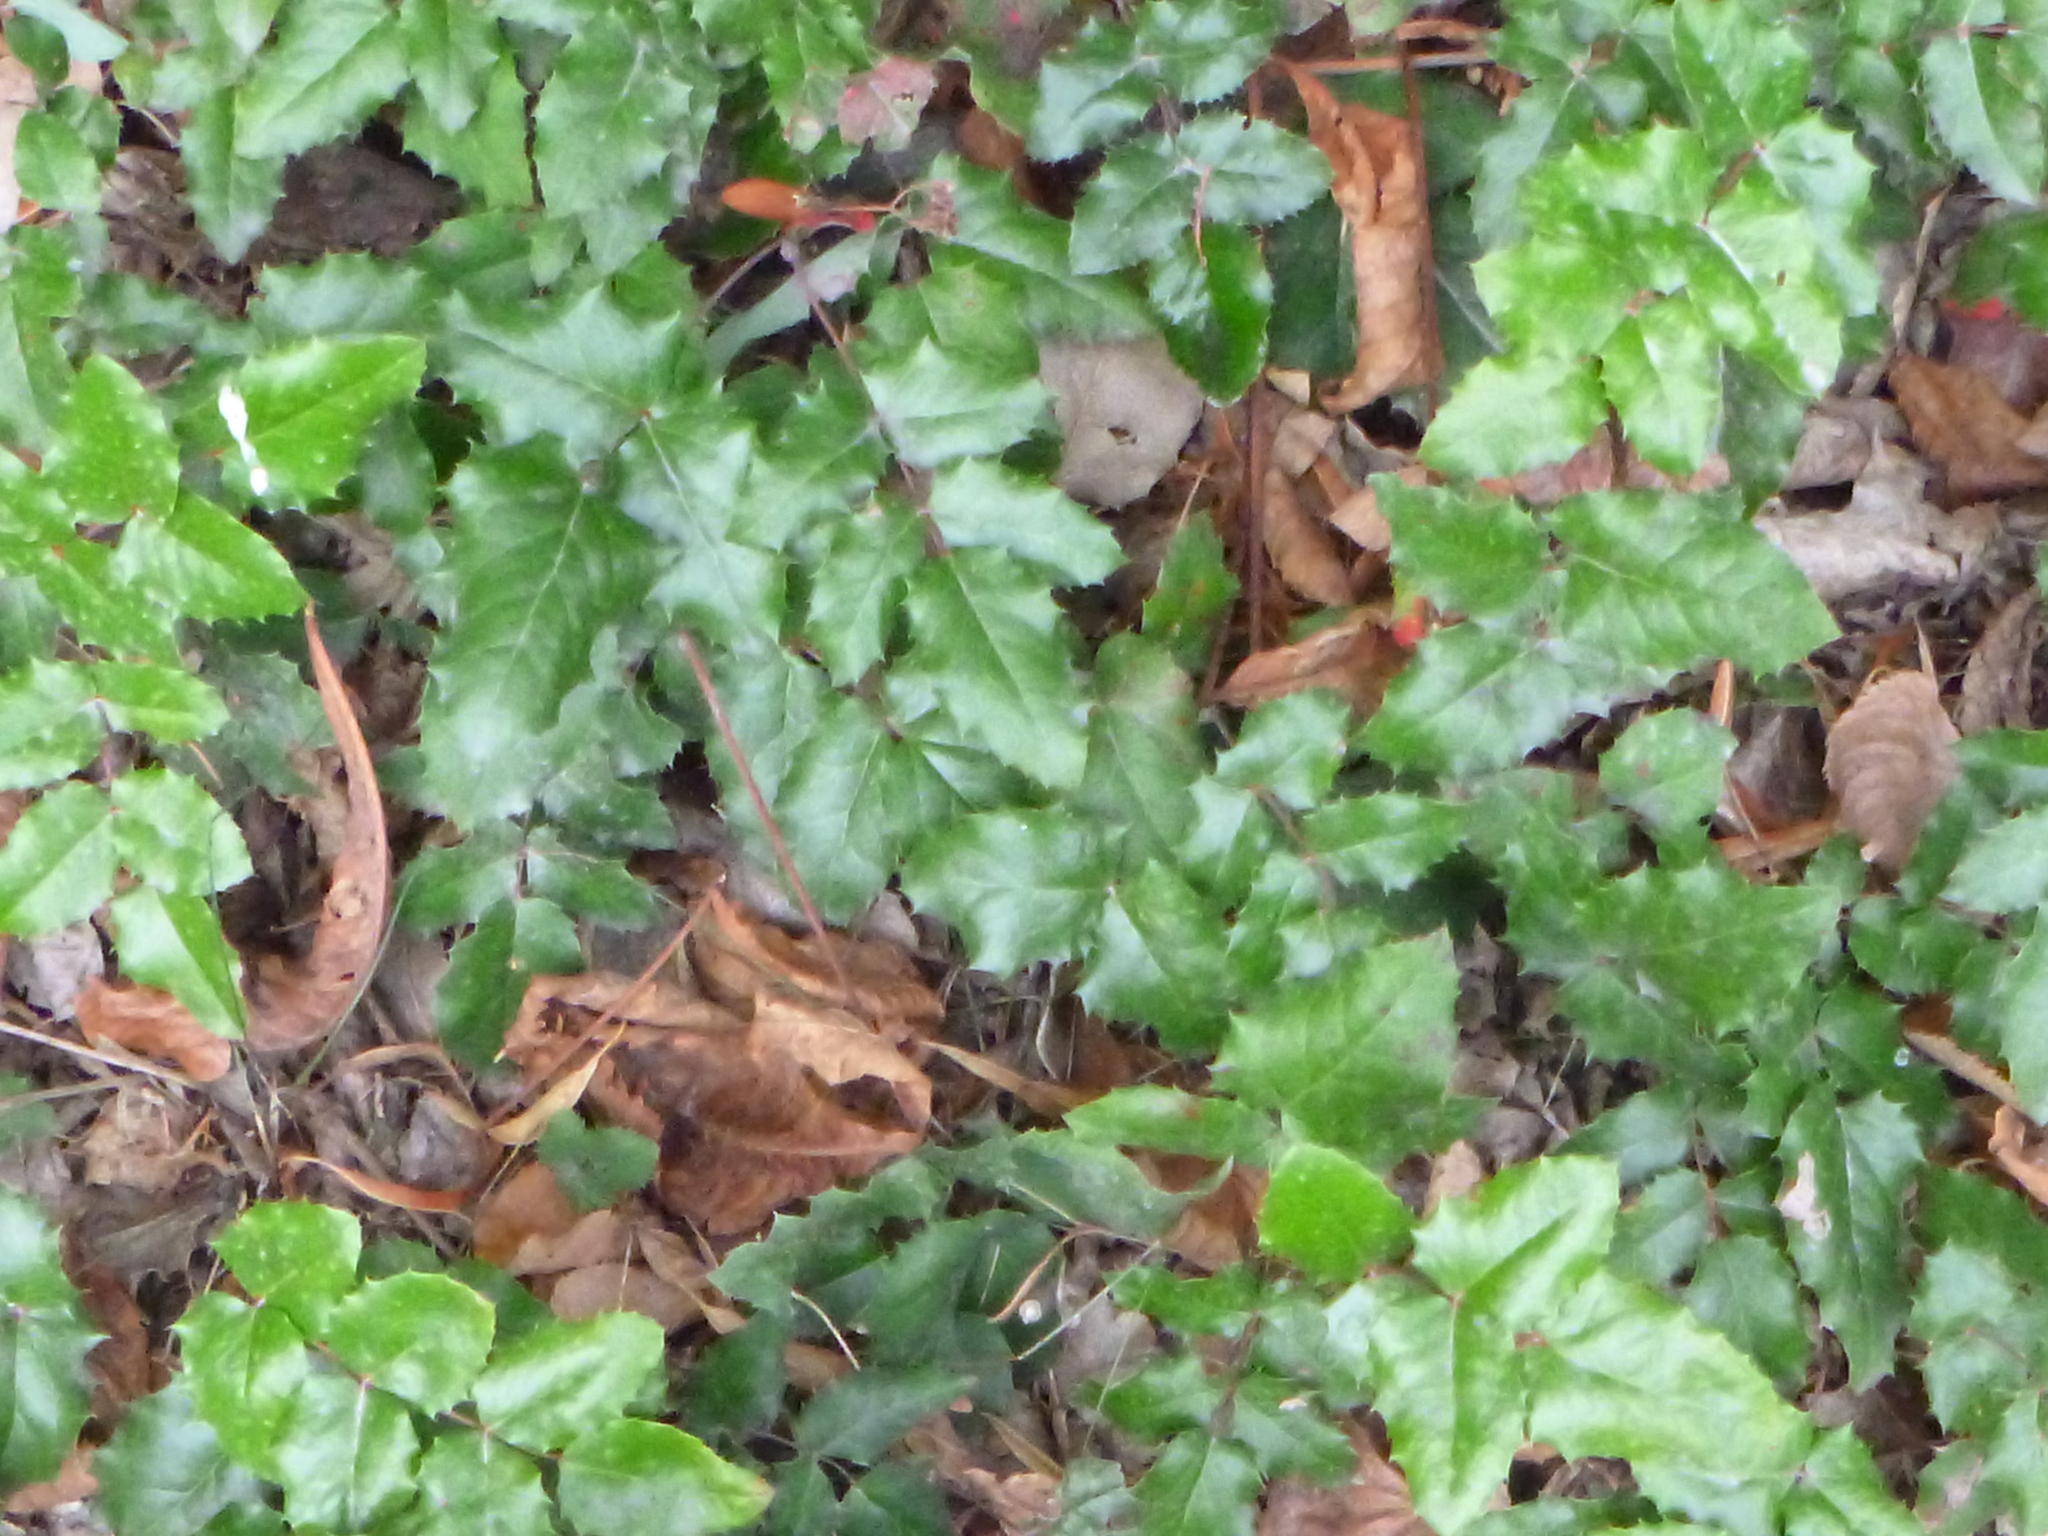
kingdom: Plantae
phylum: Tracheophyta
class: Magnoliopsida
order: Ranunculales
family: Berberidaceae
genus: Mahonia
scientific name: Mahonia aquifolium
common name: Oregon-grape
